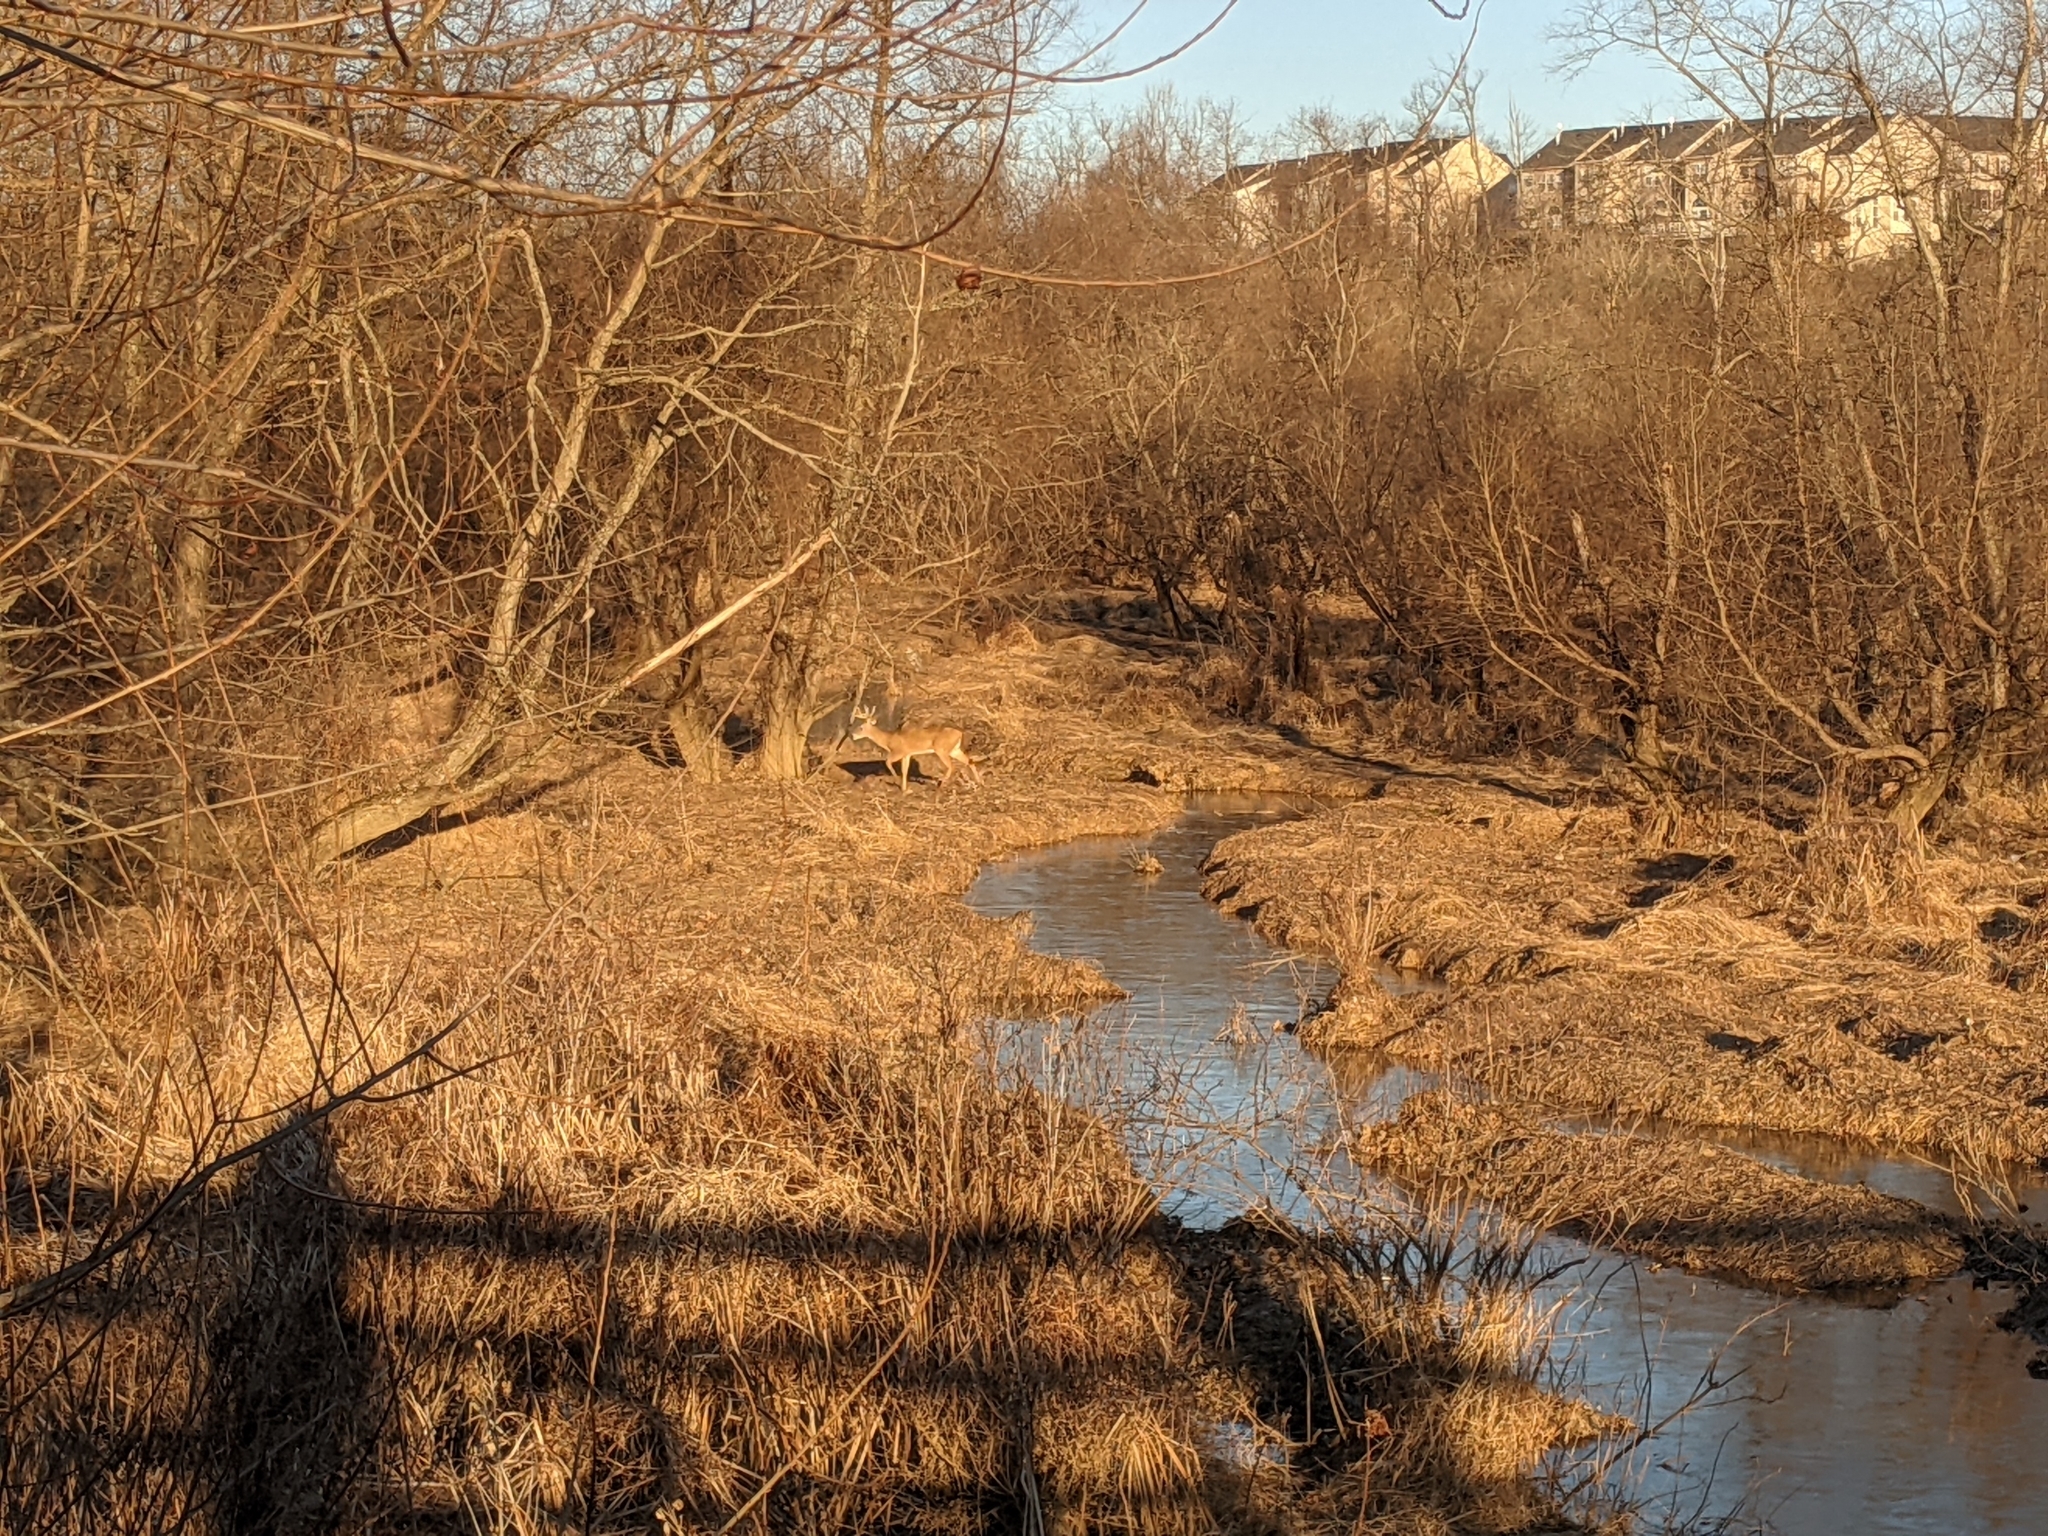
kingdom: Animalia
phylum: Chordata
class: Mammalia
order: Artiodactyla
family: Cervidae
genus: Odocoileus
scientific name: Odocoileus virginianus
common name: White-tailed deer
